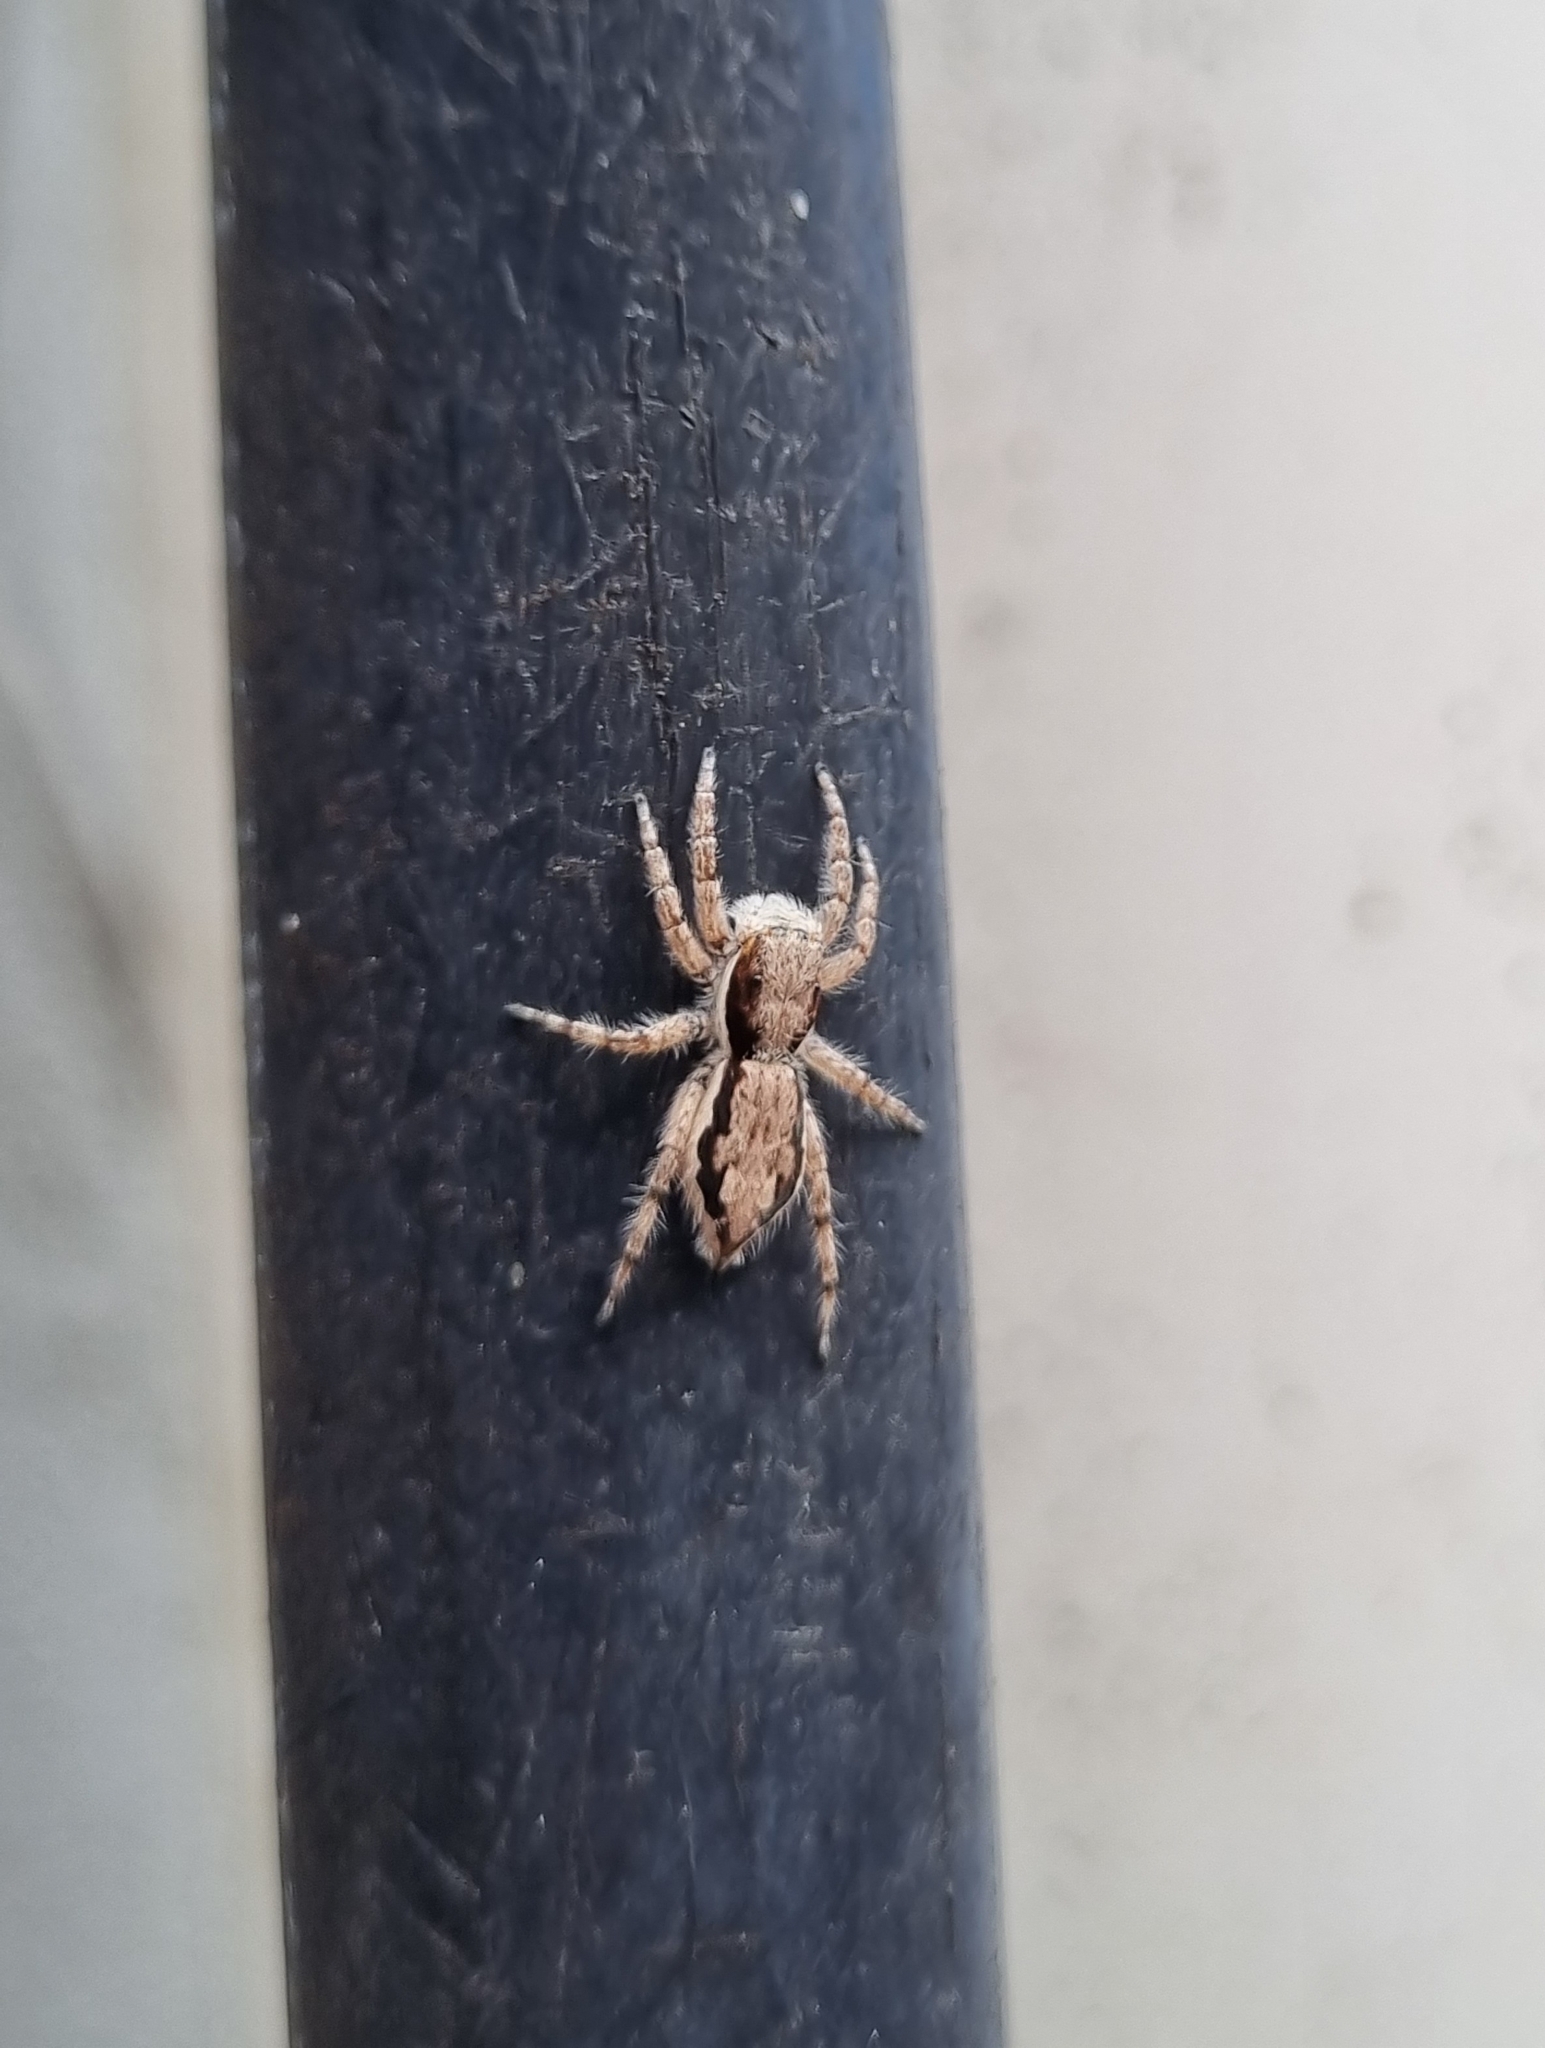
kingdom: Animalia
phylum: Arthropoda
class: Arachnida
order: Araneae
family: Salticidae
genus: Menemerus
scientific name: Menemerus bivittatus
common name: Gray wall jumper
